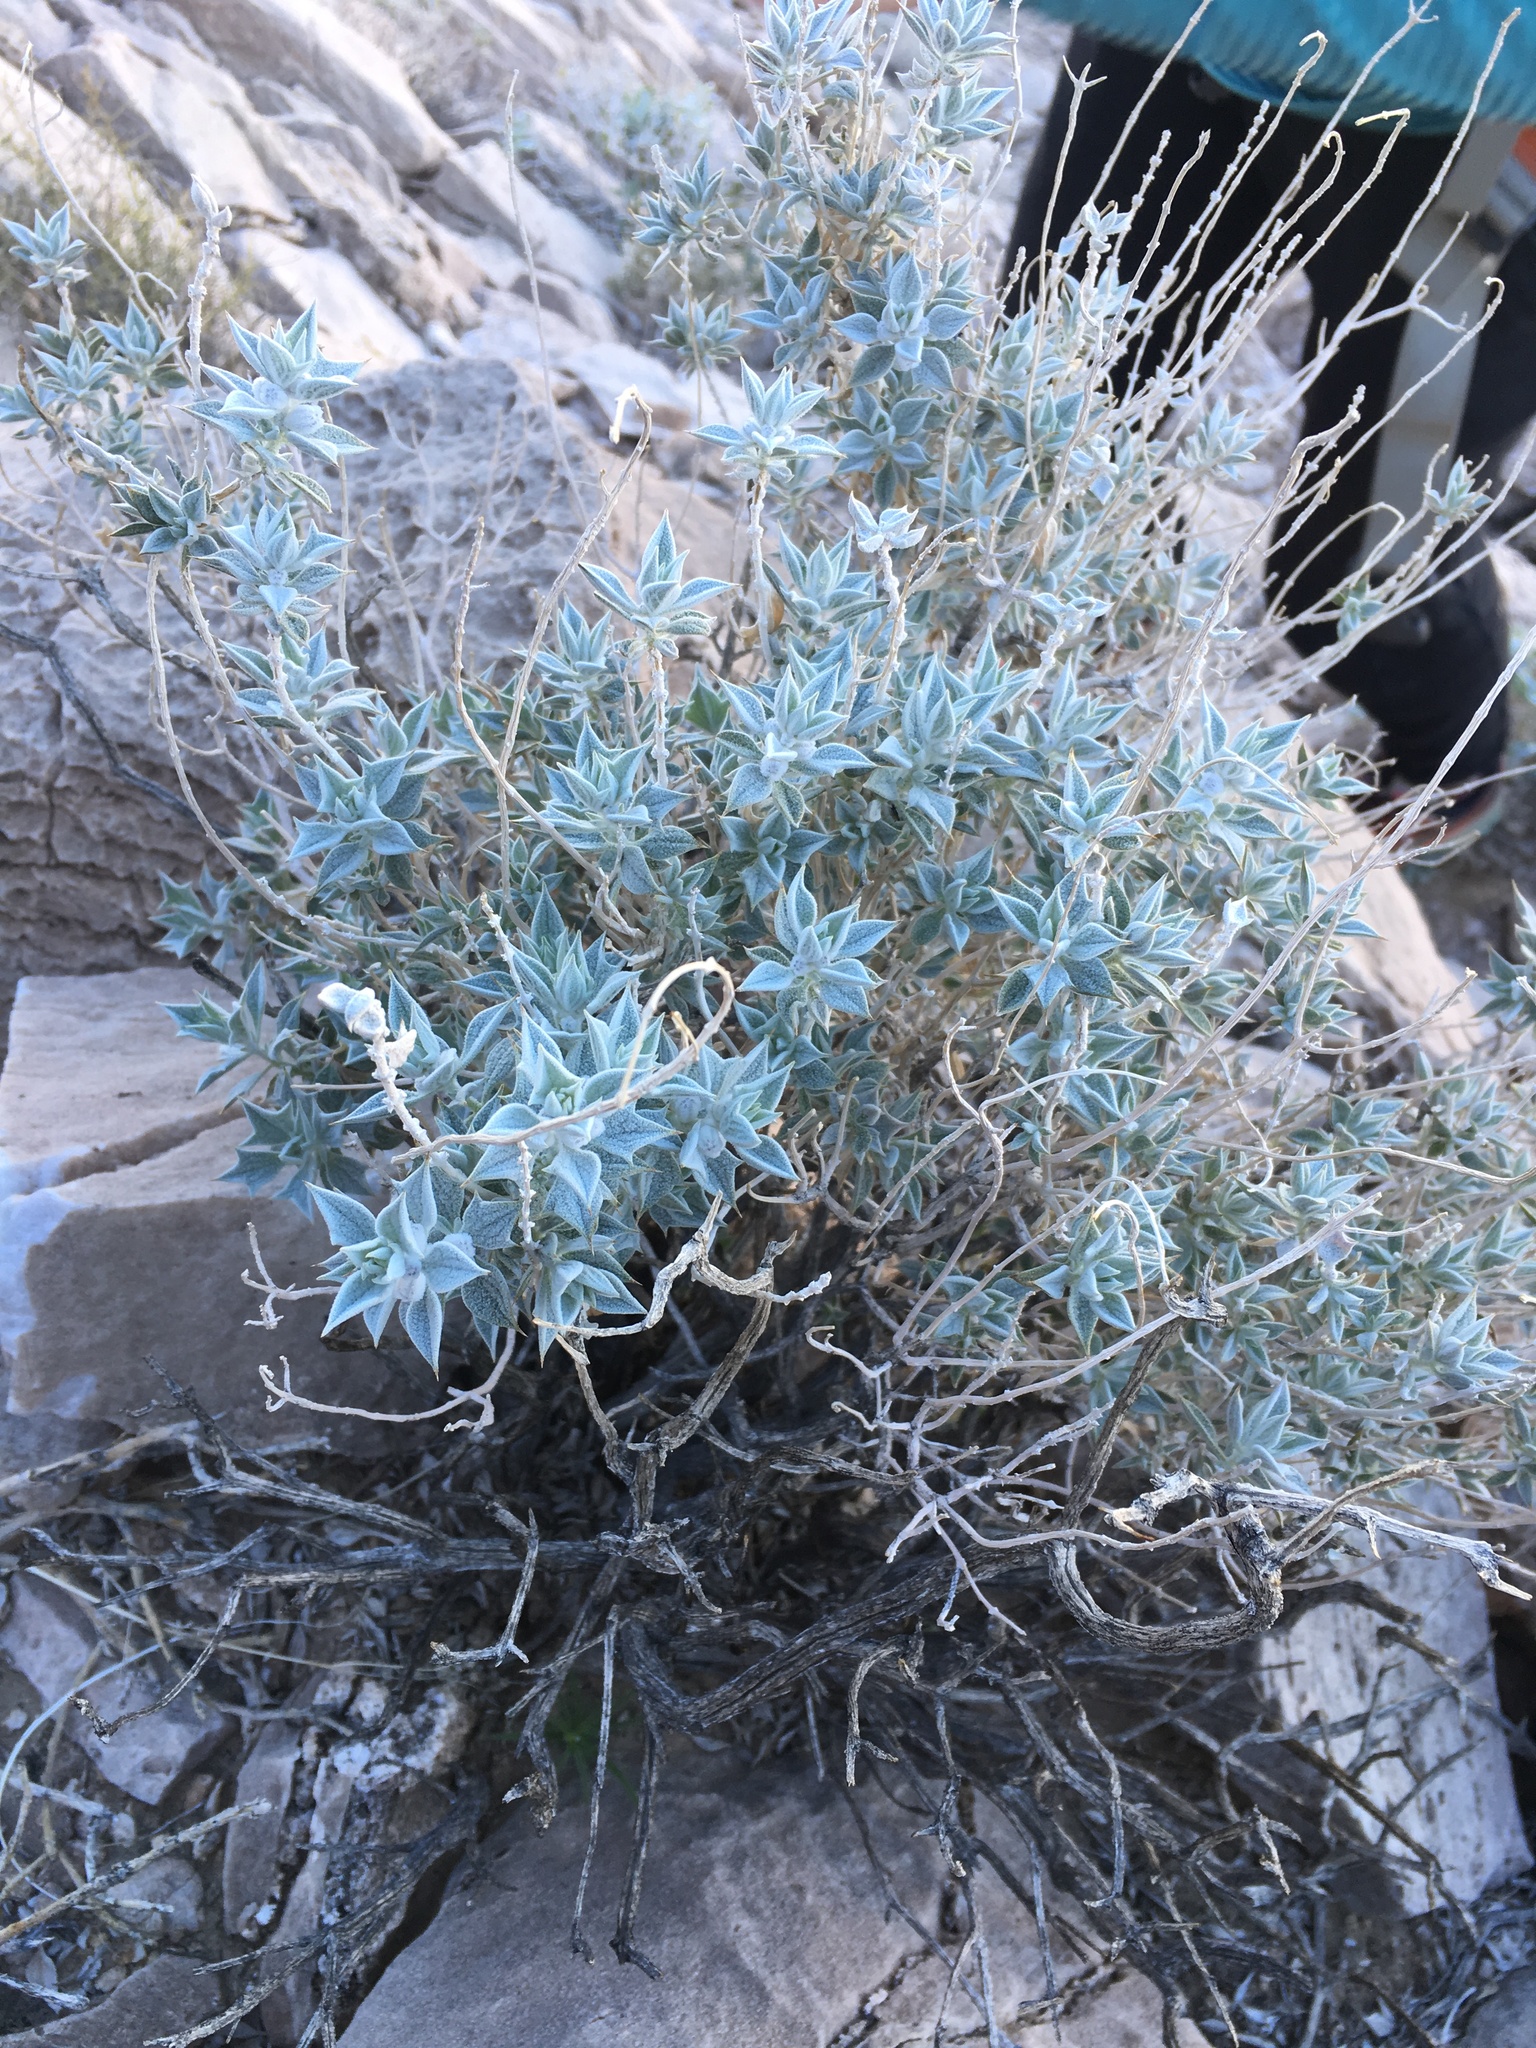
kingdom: Plantae
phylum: Tracheophyta
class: Magnoliopsida
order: Lamiales
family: Lamiaceae
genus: Salvia
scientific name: Salvia funerea
